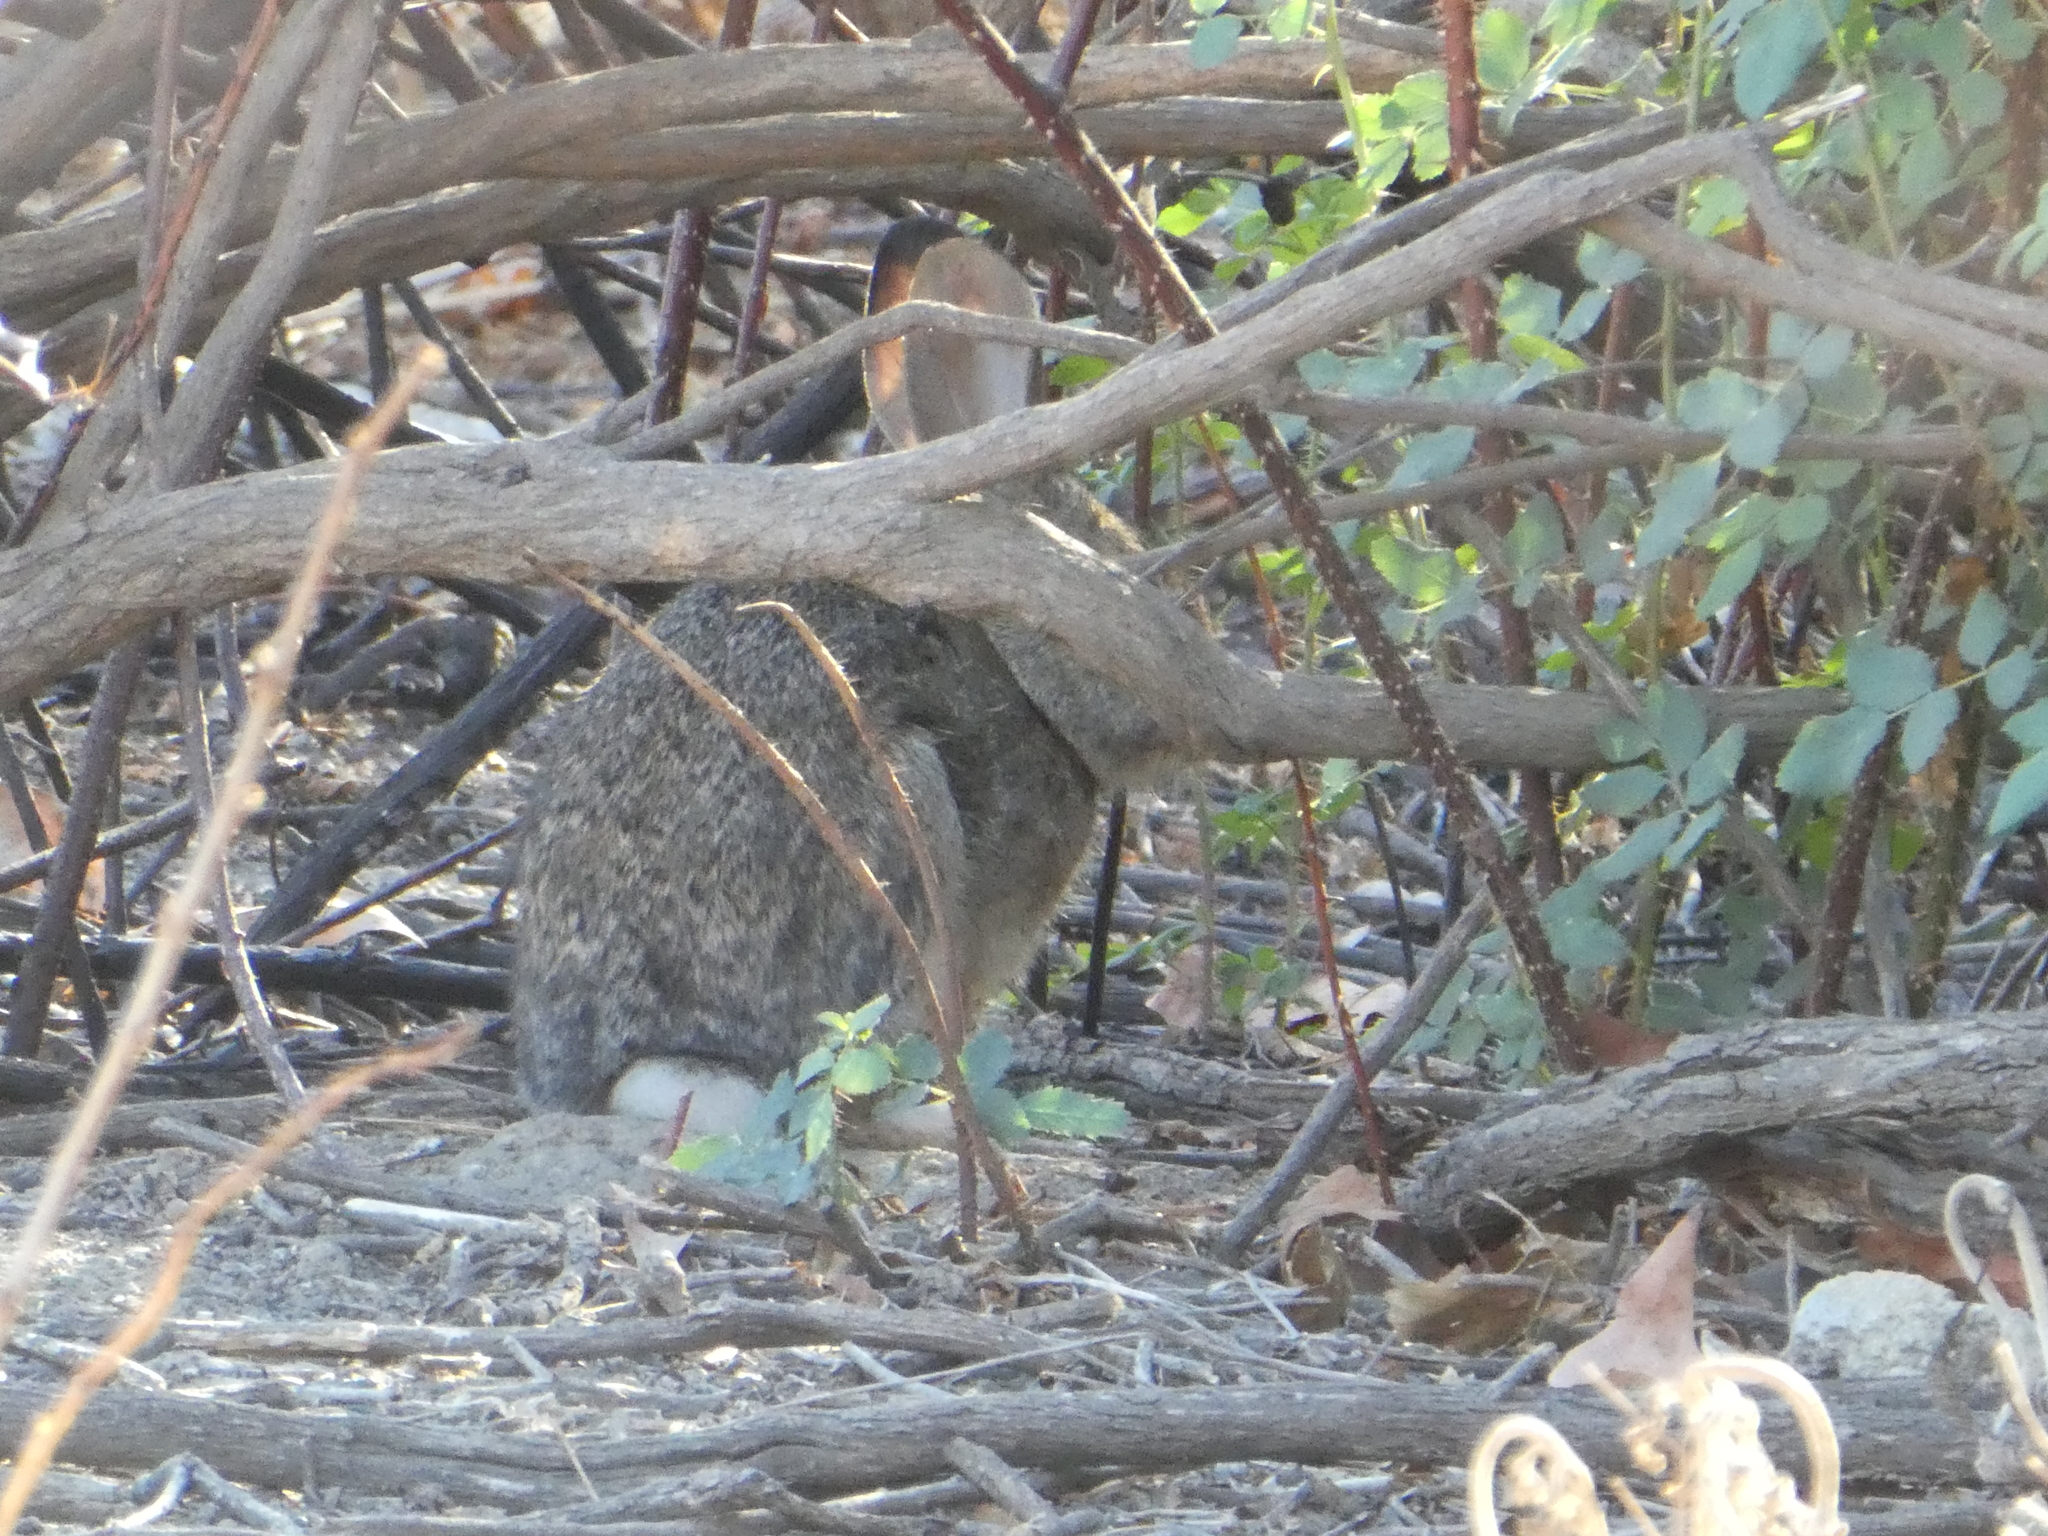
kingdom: Animalia
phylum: Chordata
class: Mammalia
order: Lagomorpha
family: Leporidae
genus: Sylvilagus
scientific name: Sylvilagus audubonii
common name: Desert cottontail
